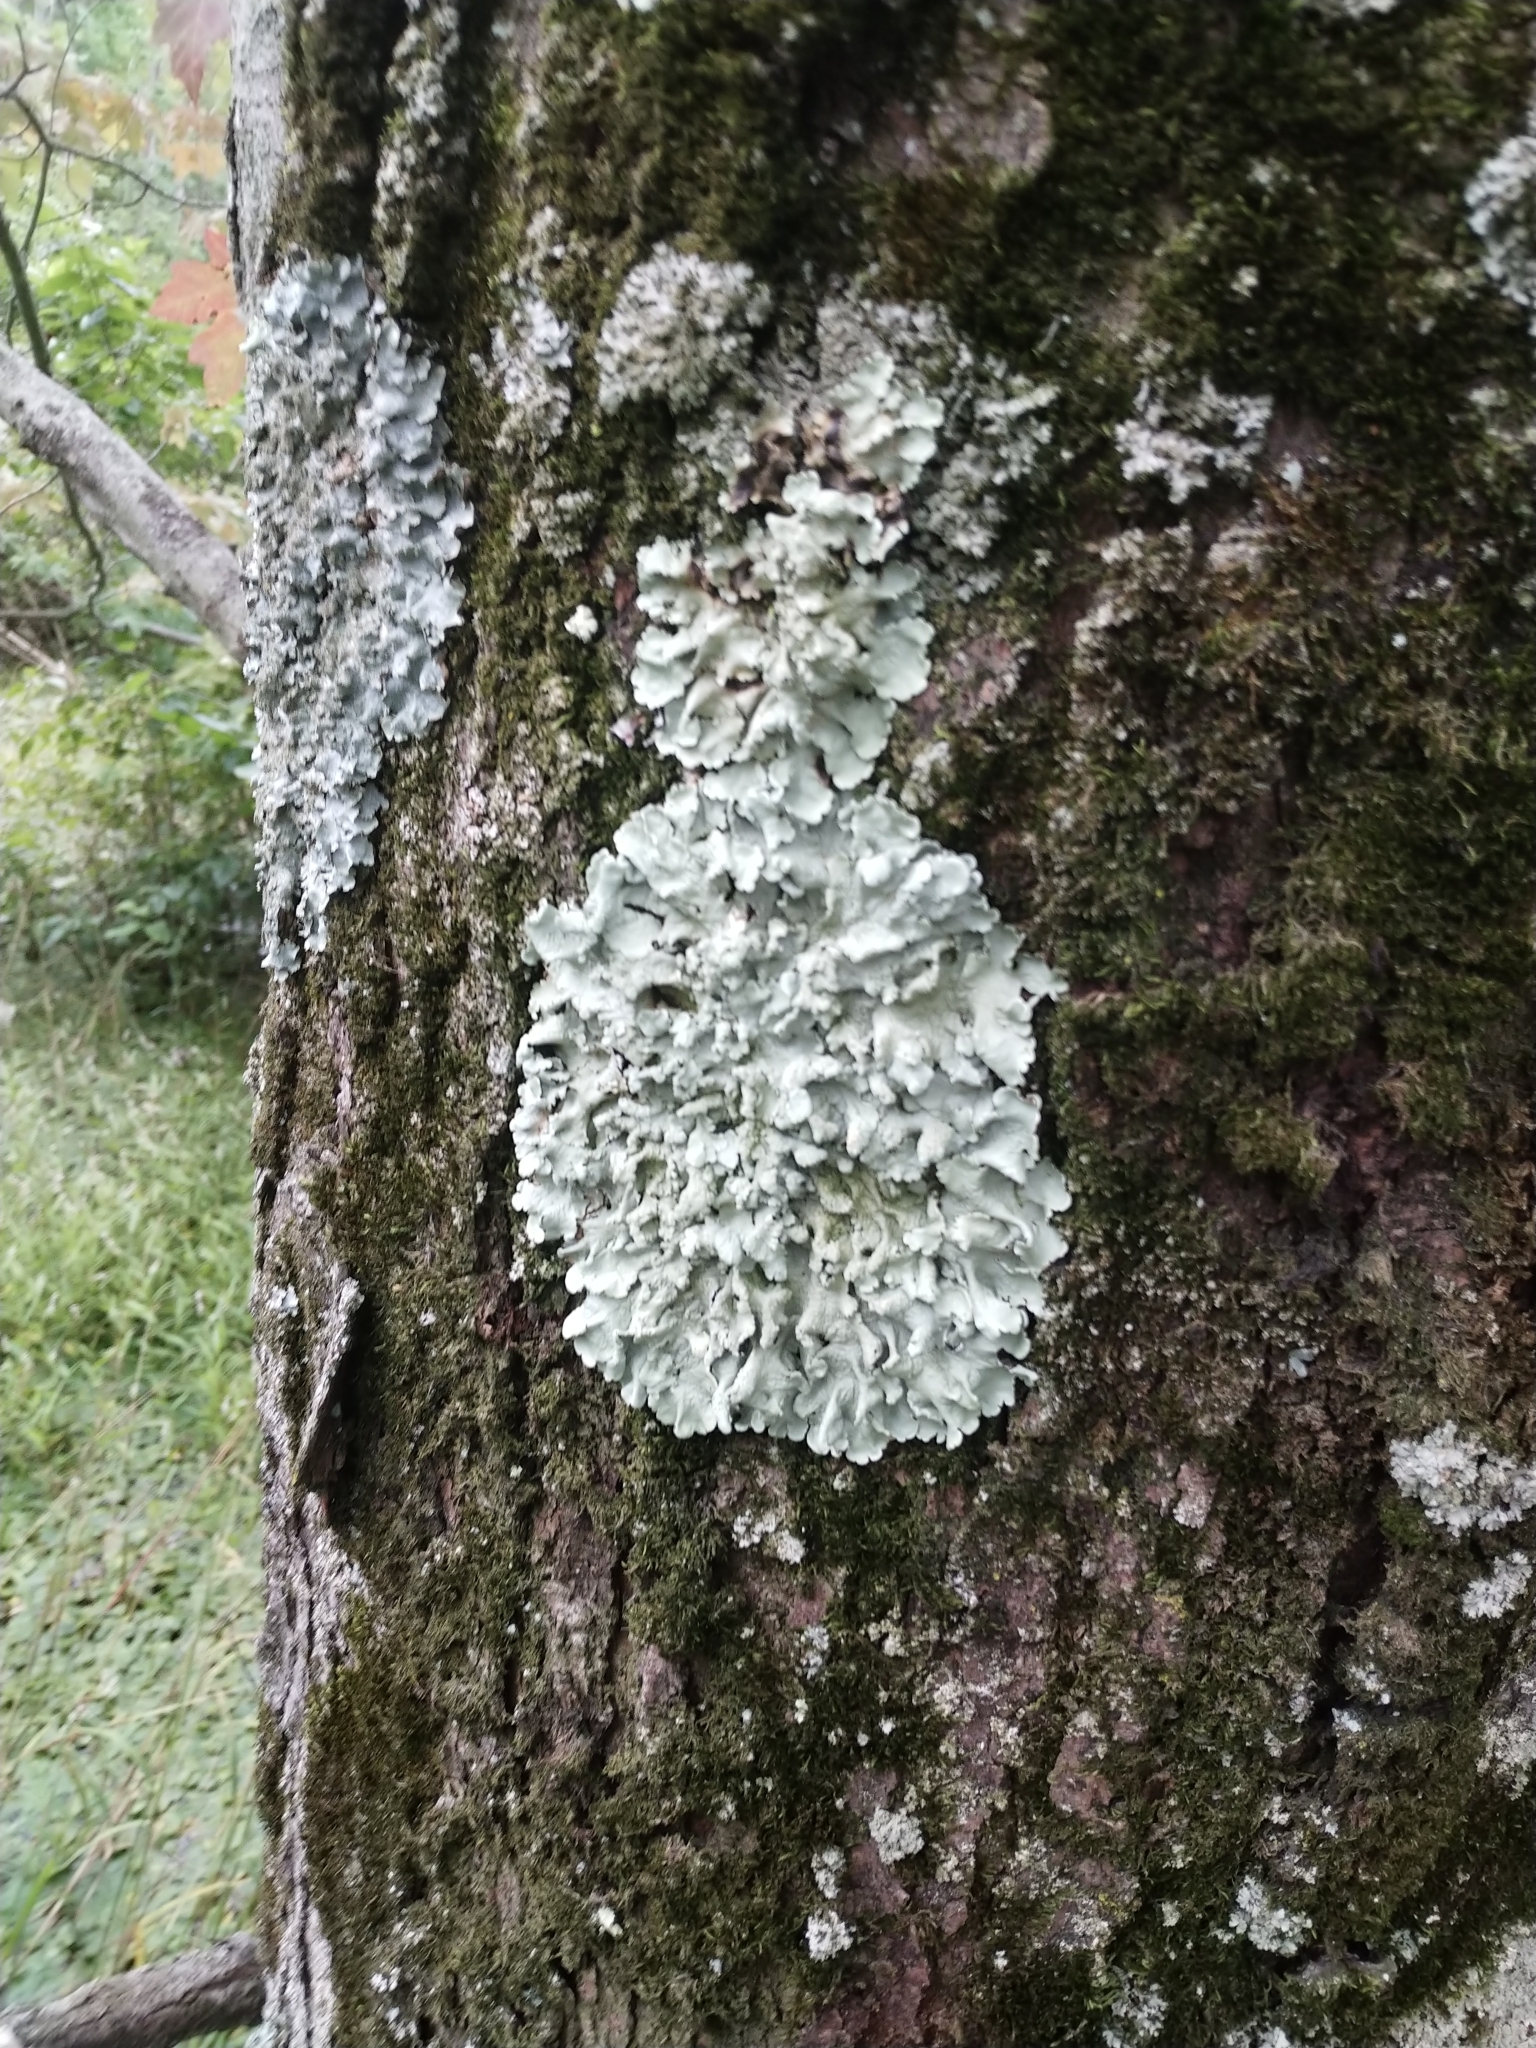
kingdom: Fungi
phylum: Ascomycota
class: Lecanoromycetes
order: Lecanorales
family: Parmeliaceae
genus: Flavoparmelia
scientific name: Flavoparmelia caperata
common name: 40-mile per hour lichen
